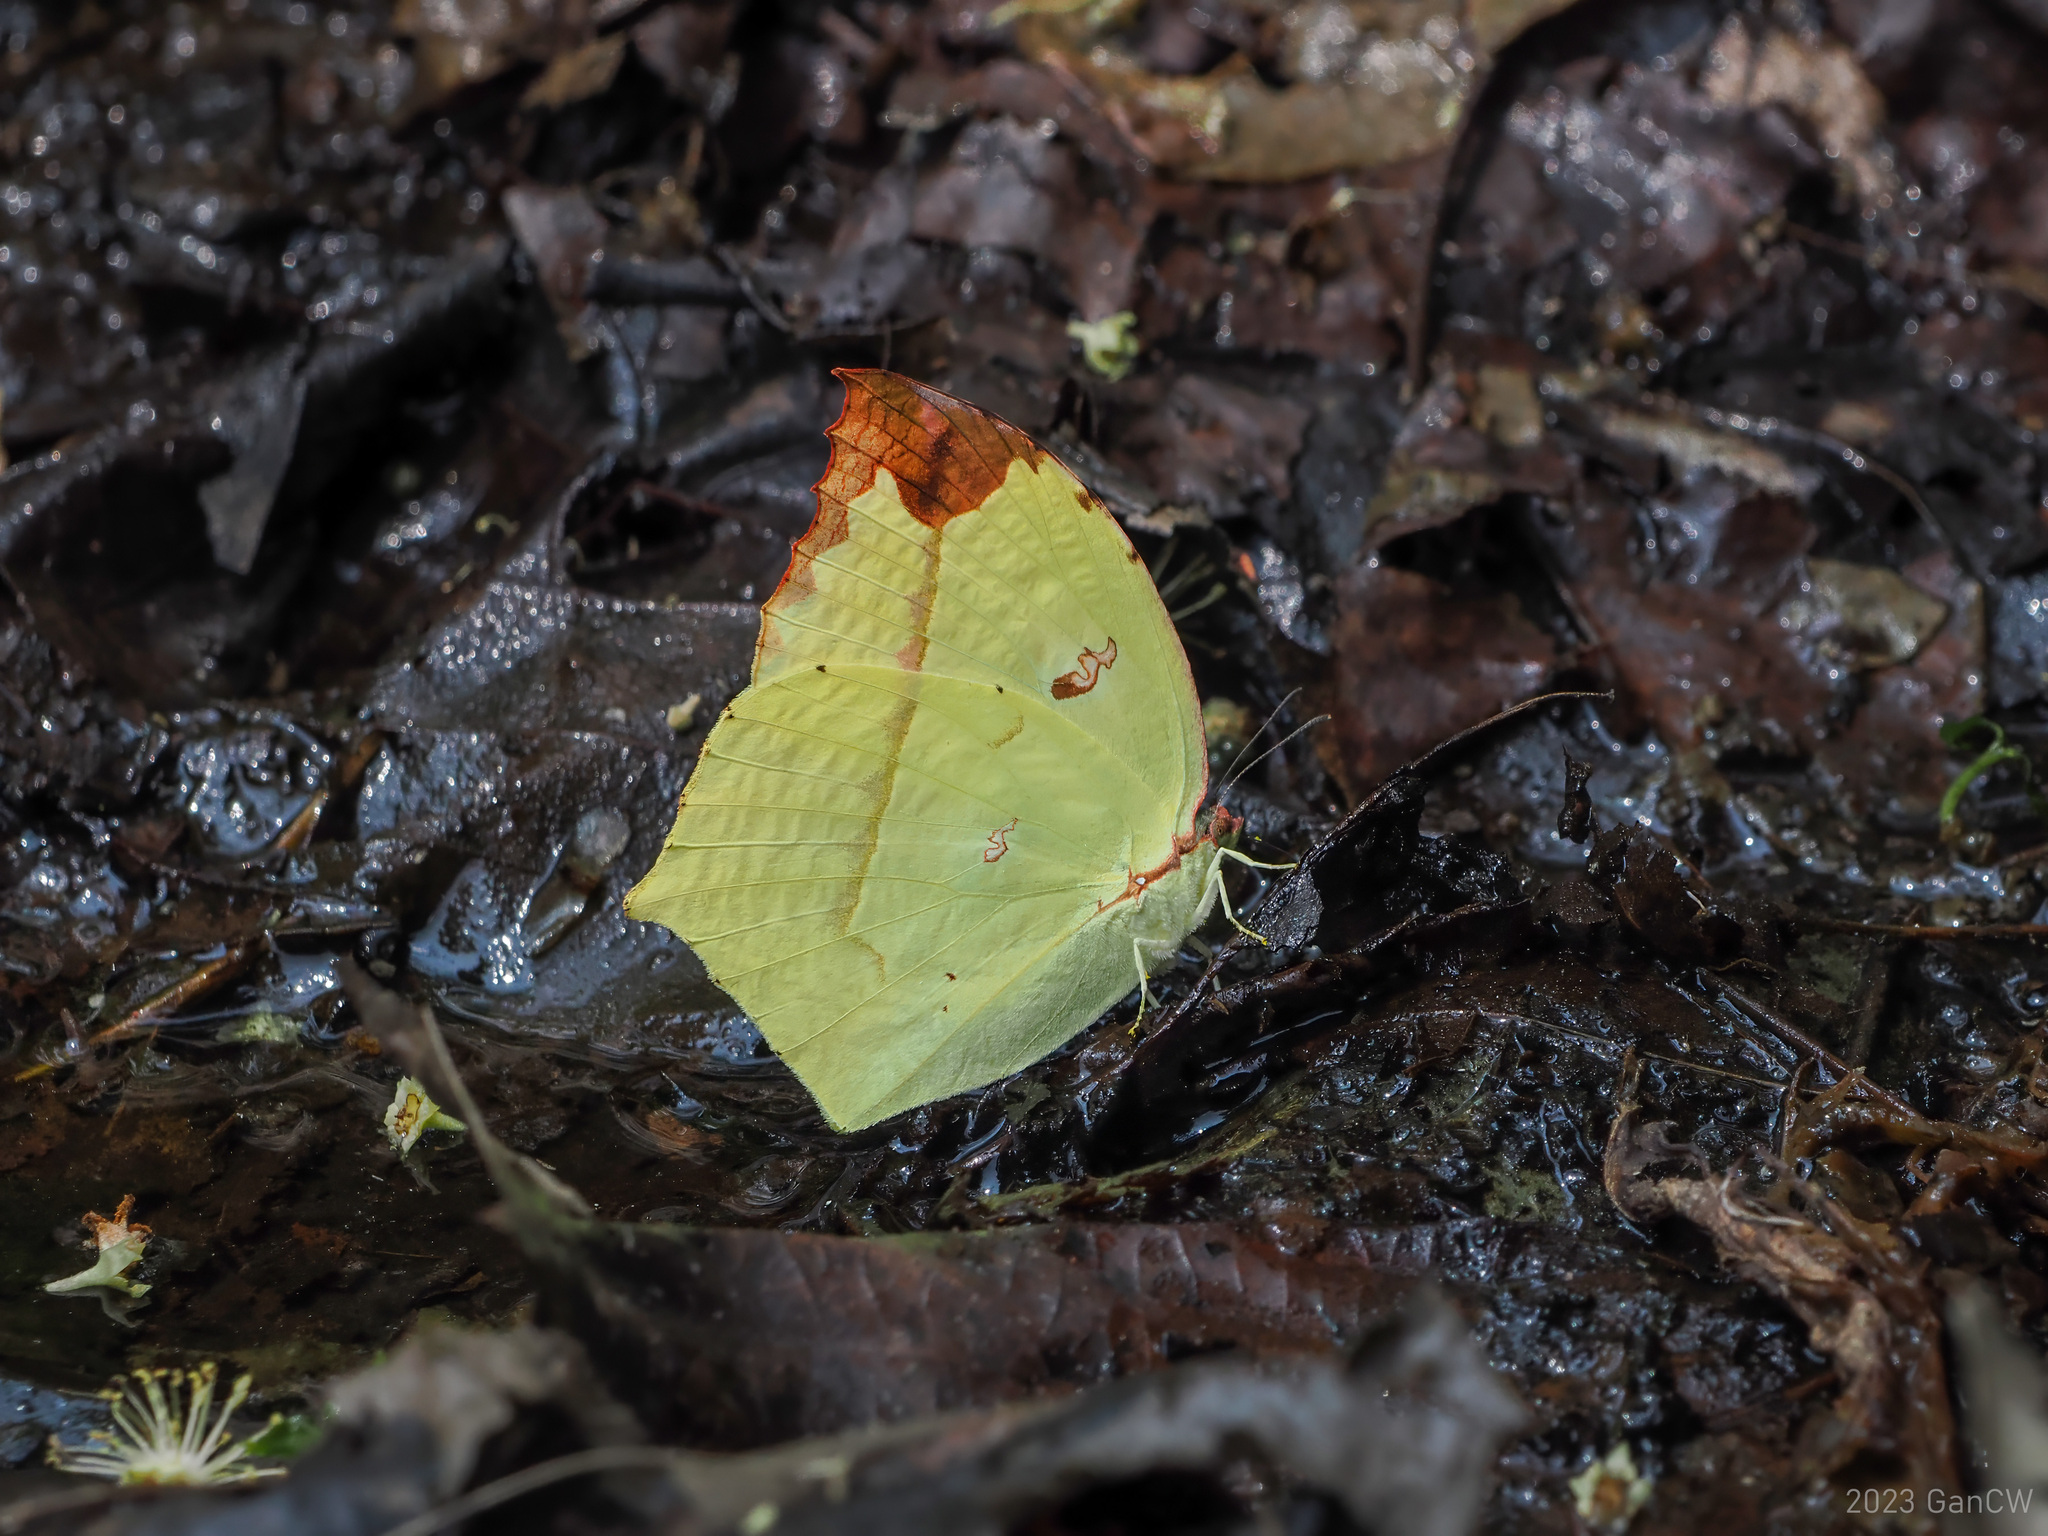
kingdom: Animalia
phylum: Arthropoda
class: Insecta
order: Lepidoptera
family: Pieridae
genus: Dercas
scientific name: Dercas verhuelli
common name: Tailed sulphur
